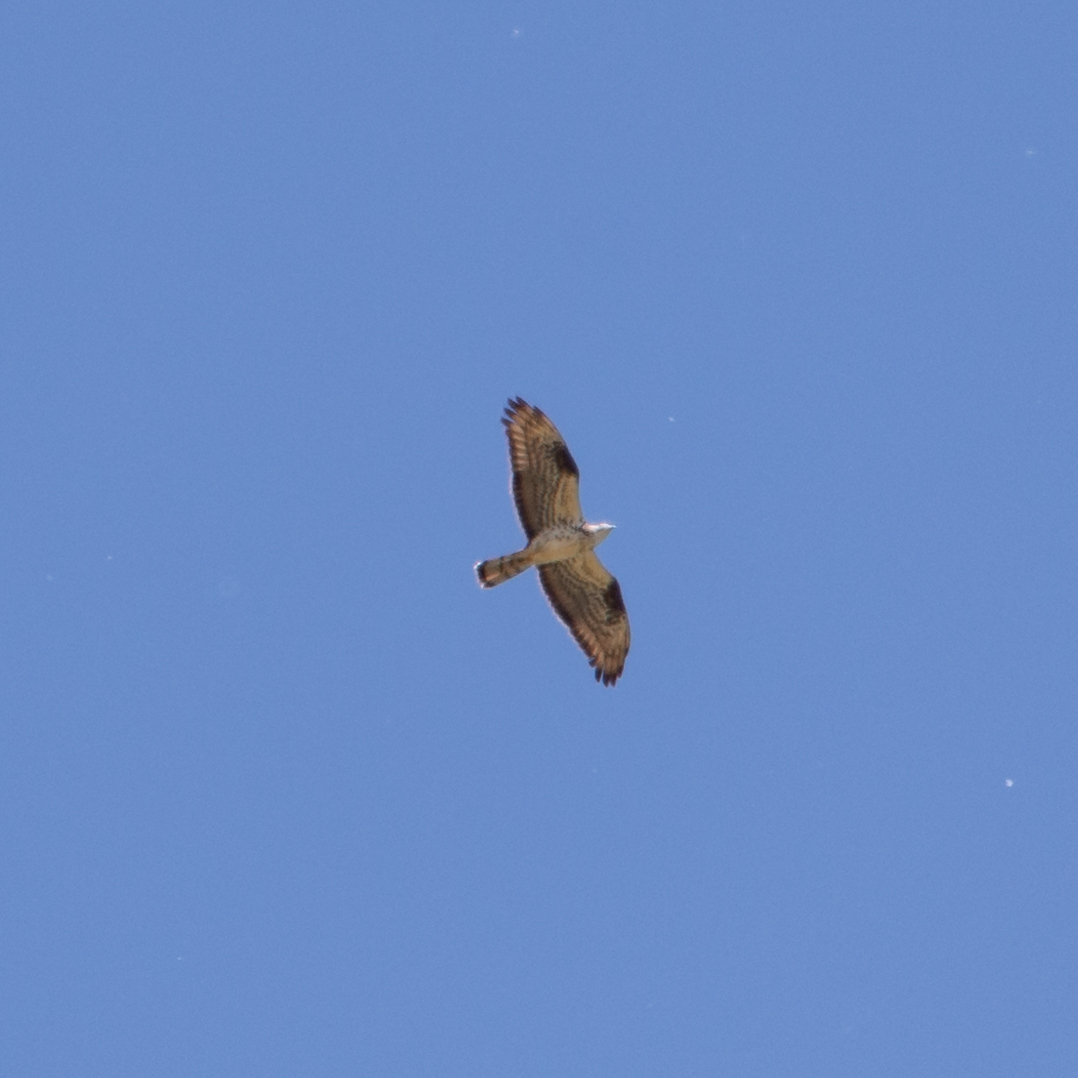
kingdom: Animalia
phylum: Chordata
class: Aves
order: Accipitriformes
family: Accipitridae
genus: Pernis
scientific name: Pernis apivorus
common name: European honey buzzard
